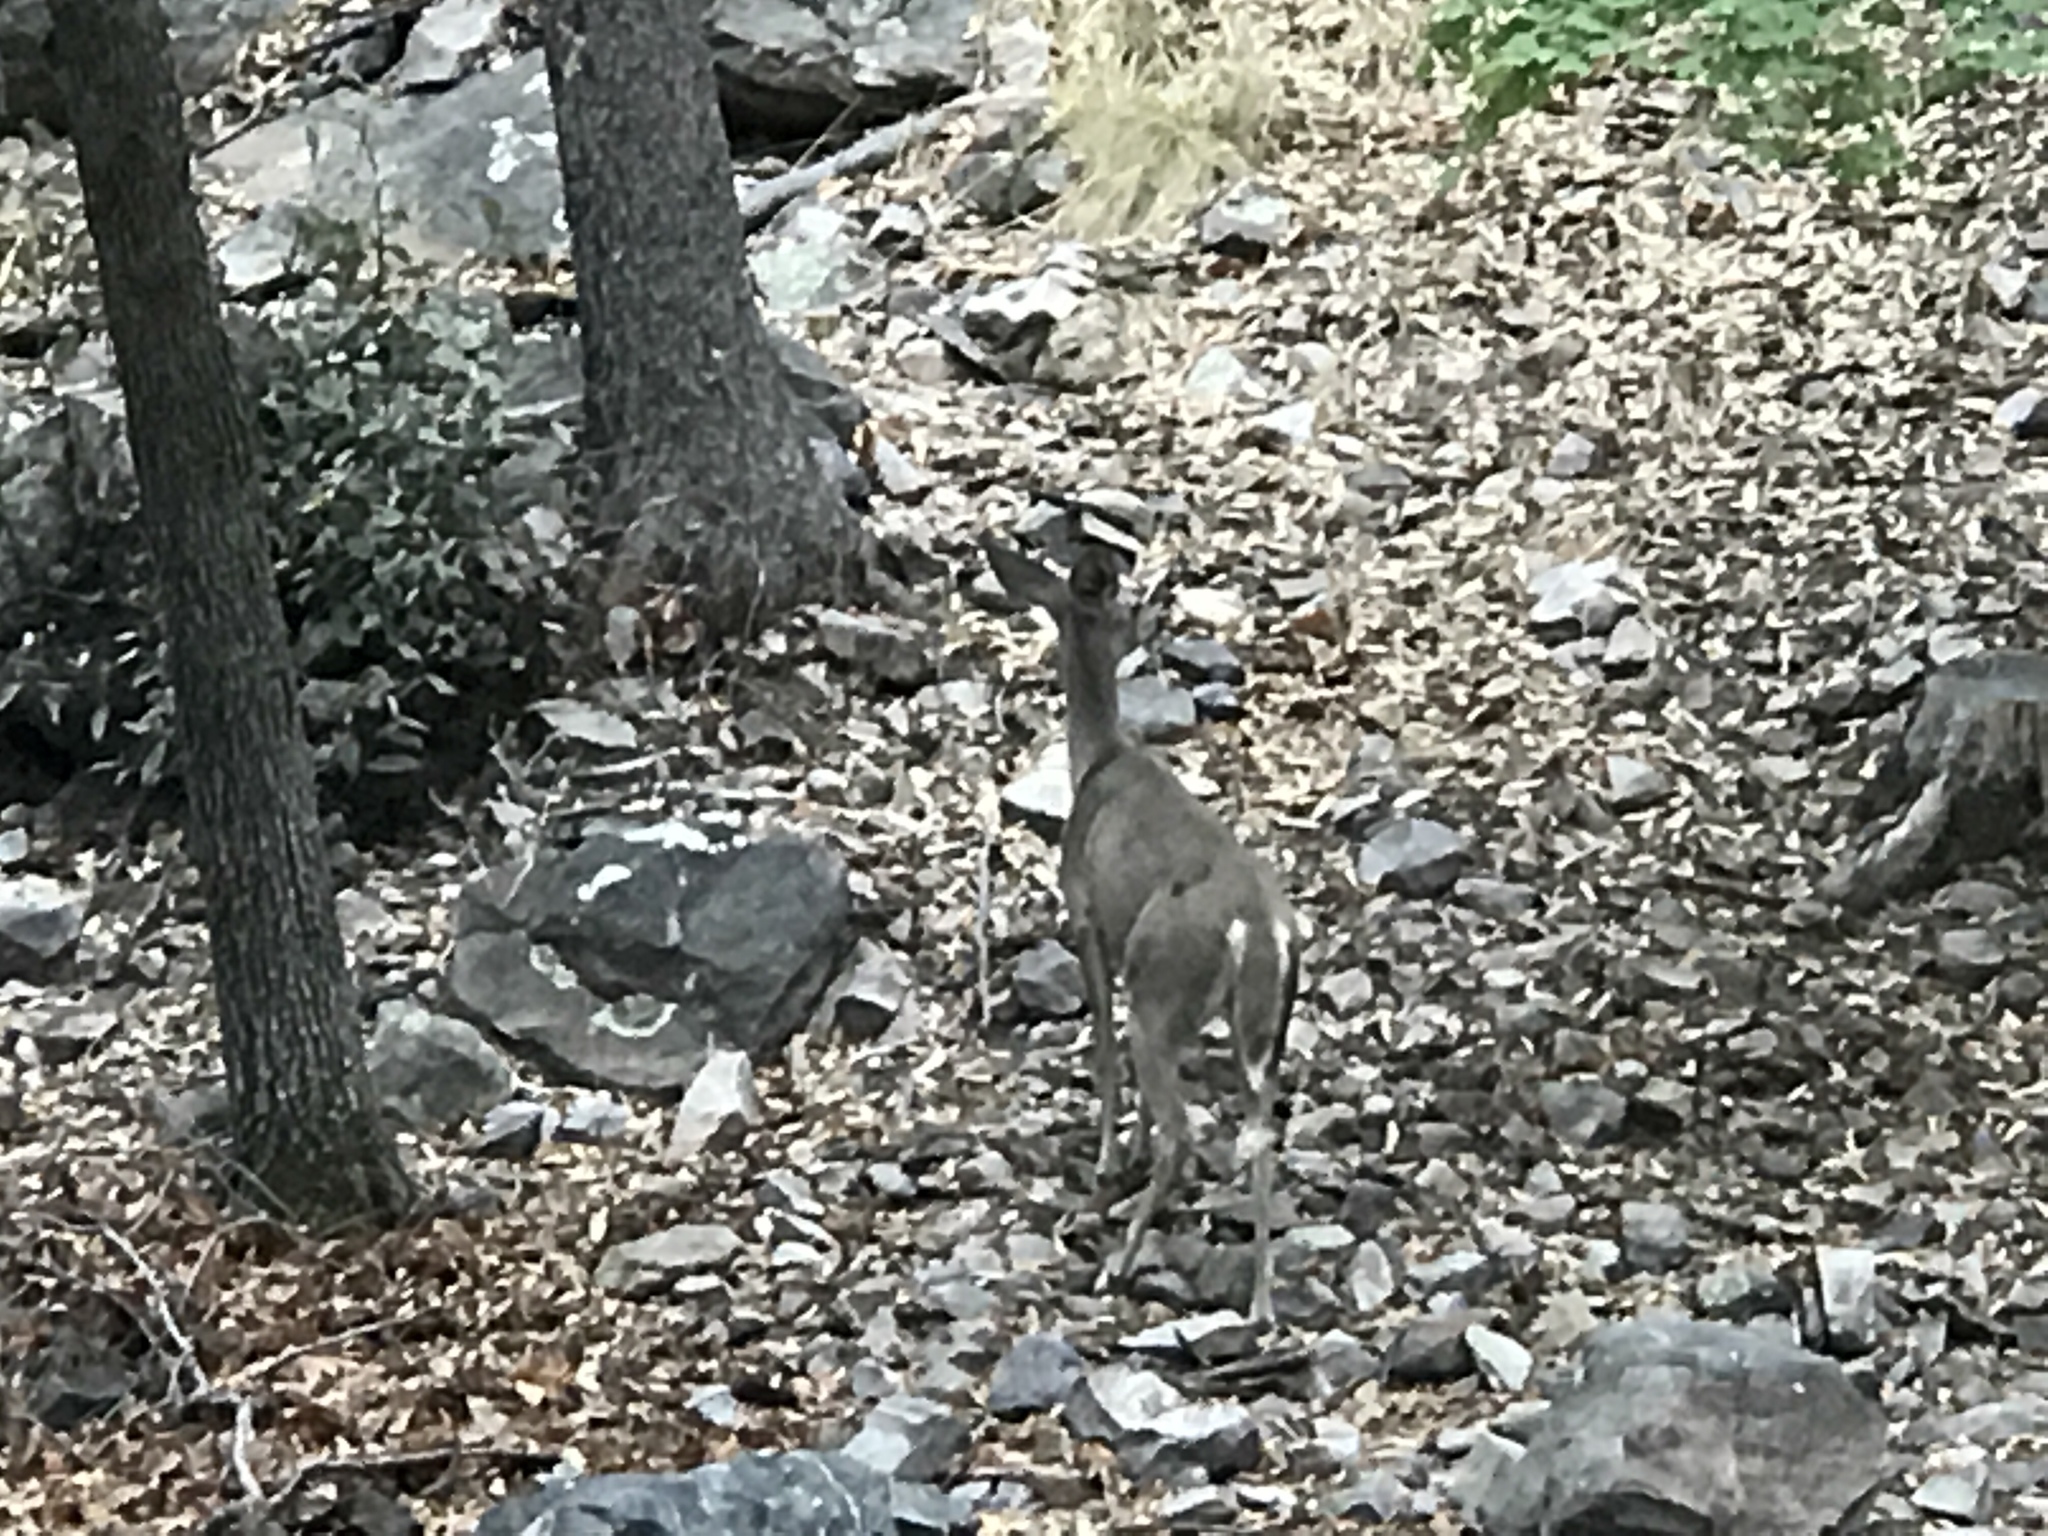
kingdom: Animalia
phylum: Chordata
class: Mammalia
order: Artiodactyla
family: Cervidae
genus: Odocoileus
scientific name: Odocoileus virginianus
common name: White-tailed deer
